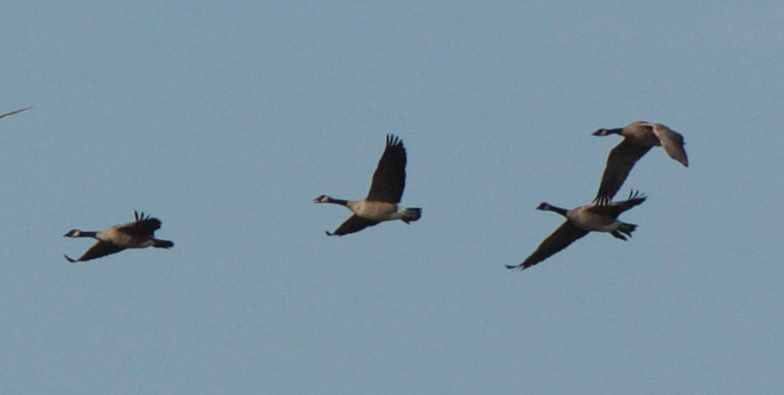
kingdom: Animalia
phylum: Chordata
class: Aves
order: Anseriformes
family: Anatidae
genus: Branta
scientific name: Branta canadensis
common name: Canada goose
